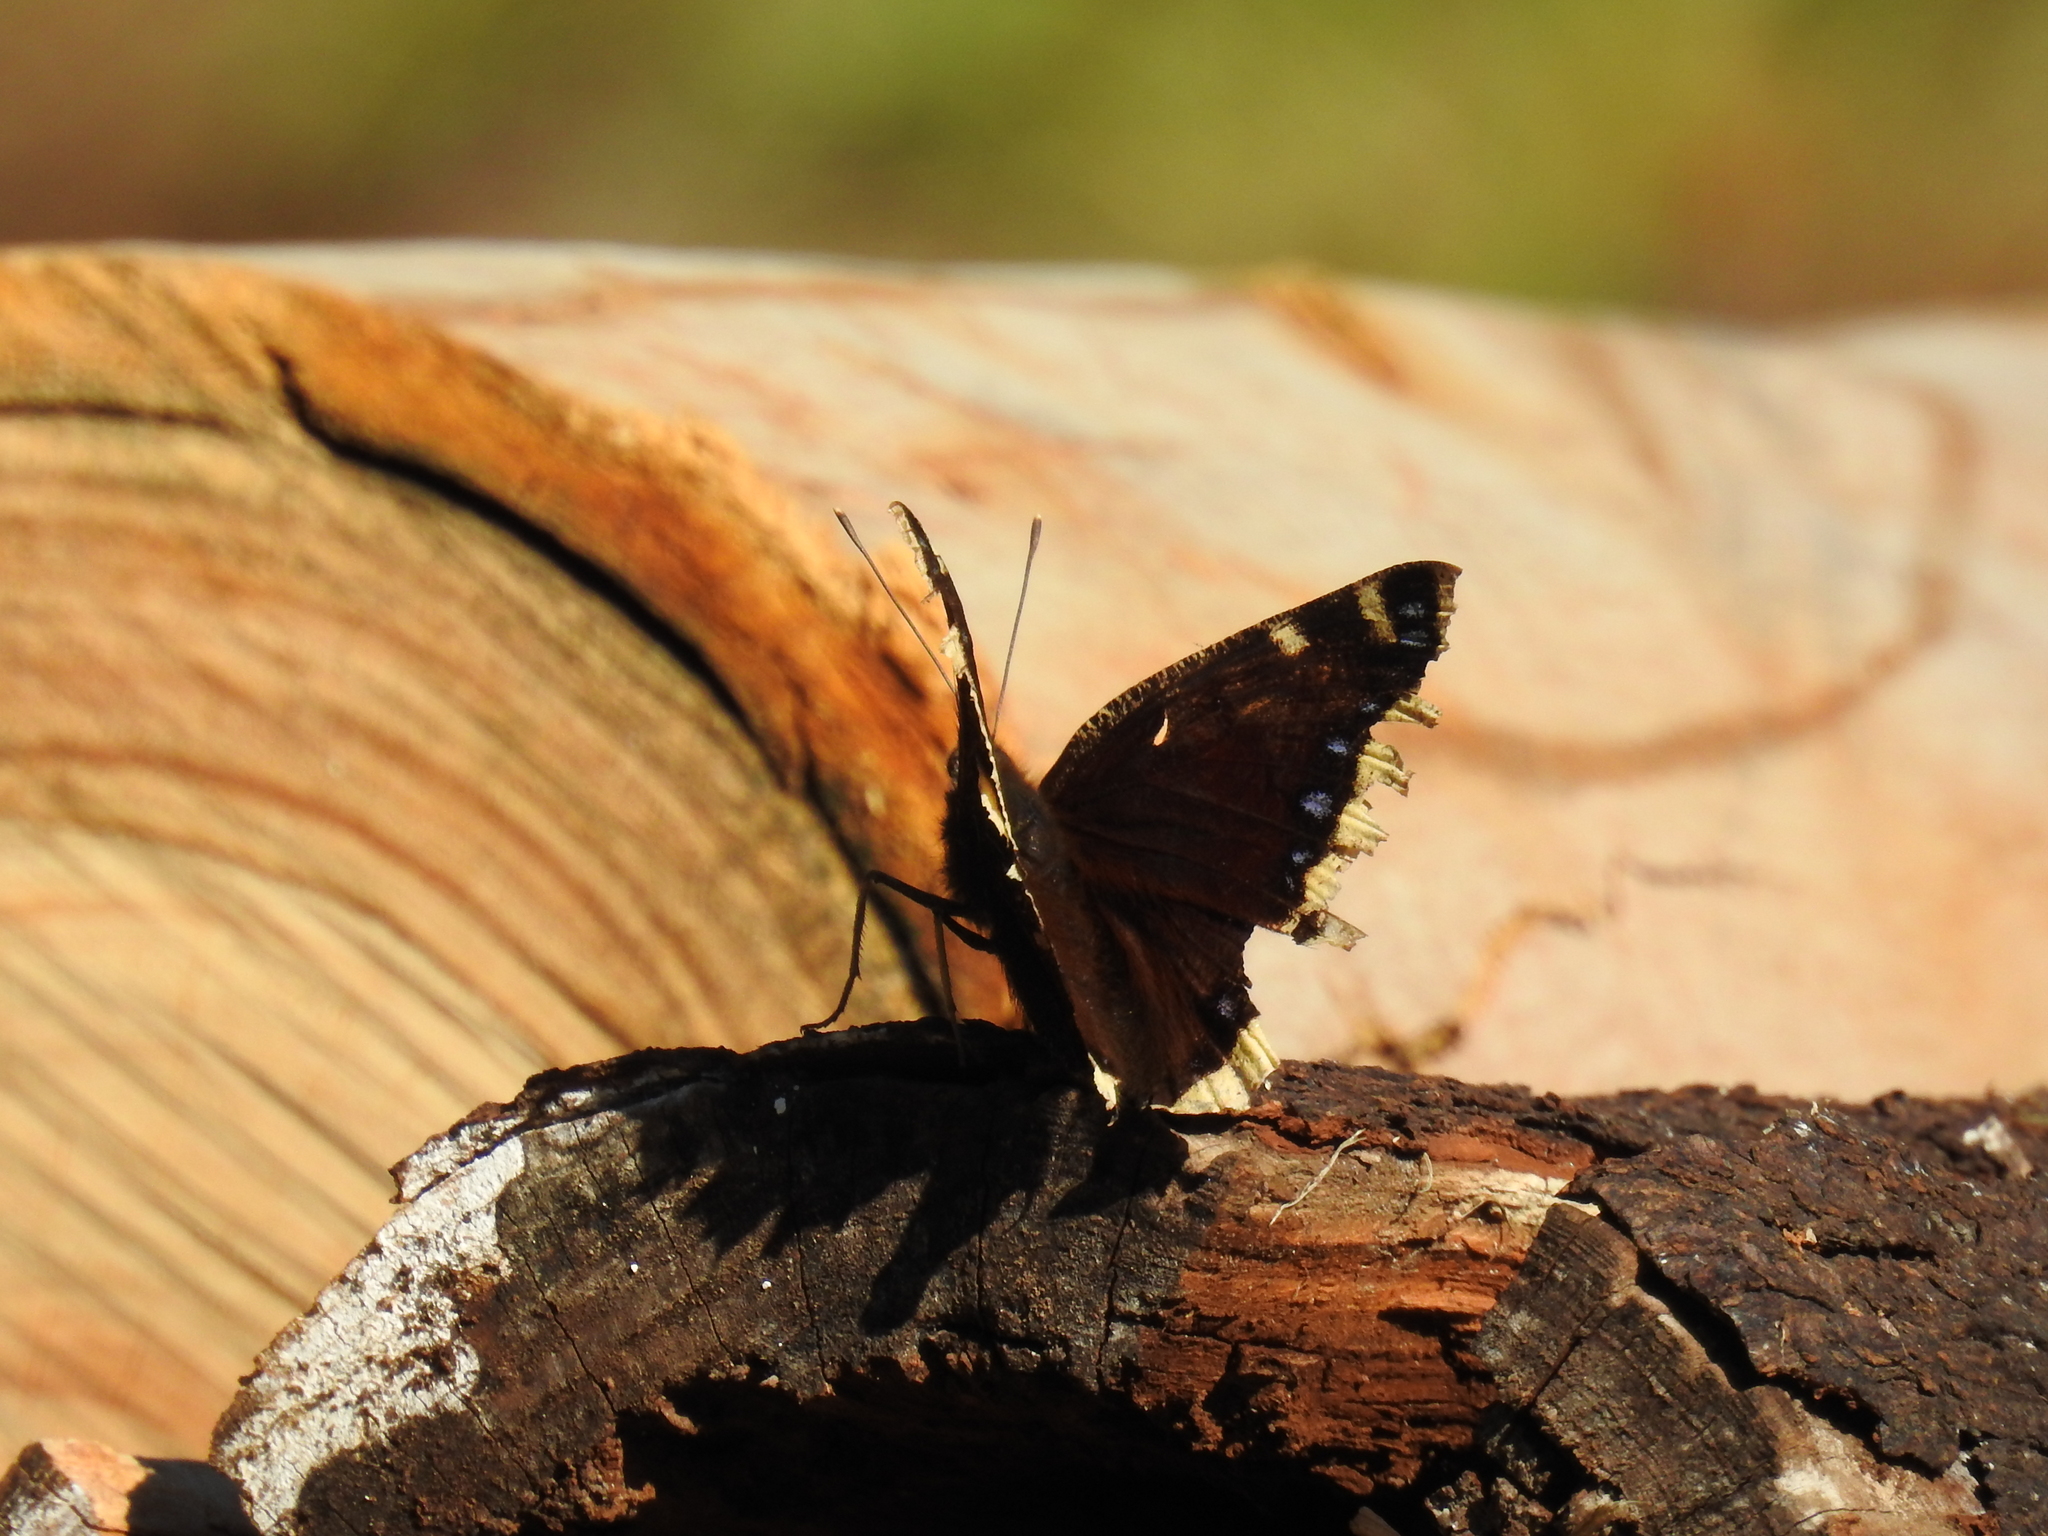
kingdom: Animalia
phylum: Arthropoda
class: Insecta
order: Lepidoptera
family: Nymphalidae
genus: Nymphalis
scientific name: Nymphalis antiopa
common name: Camberwell beauty
